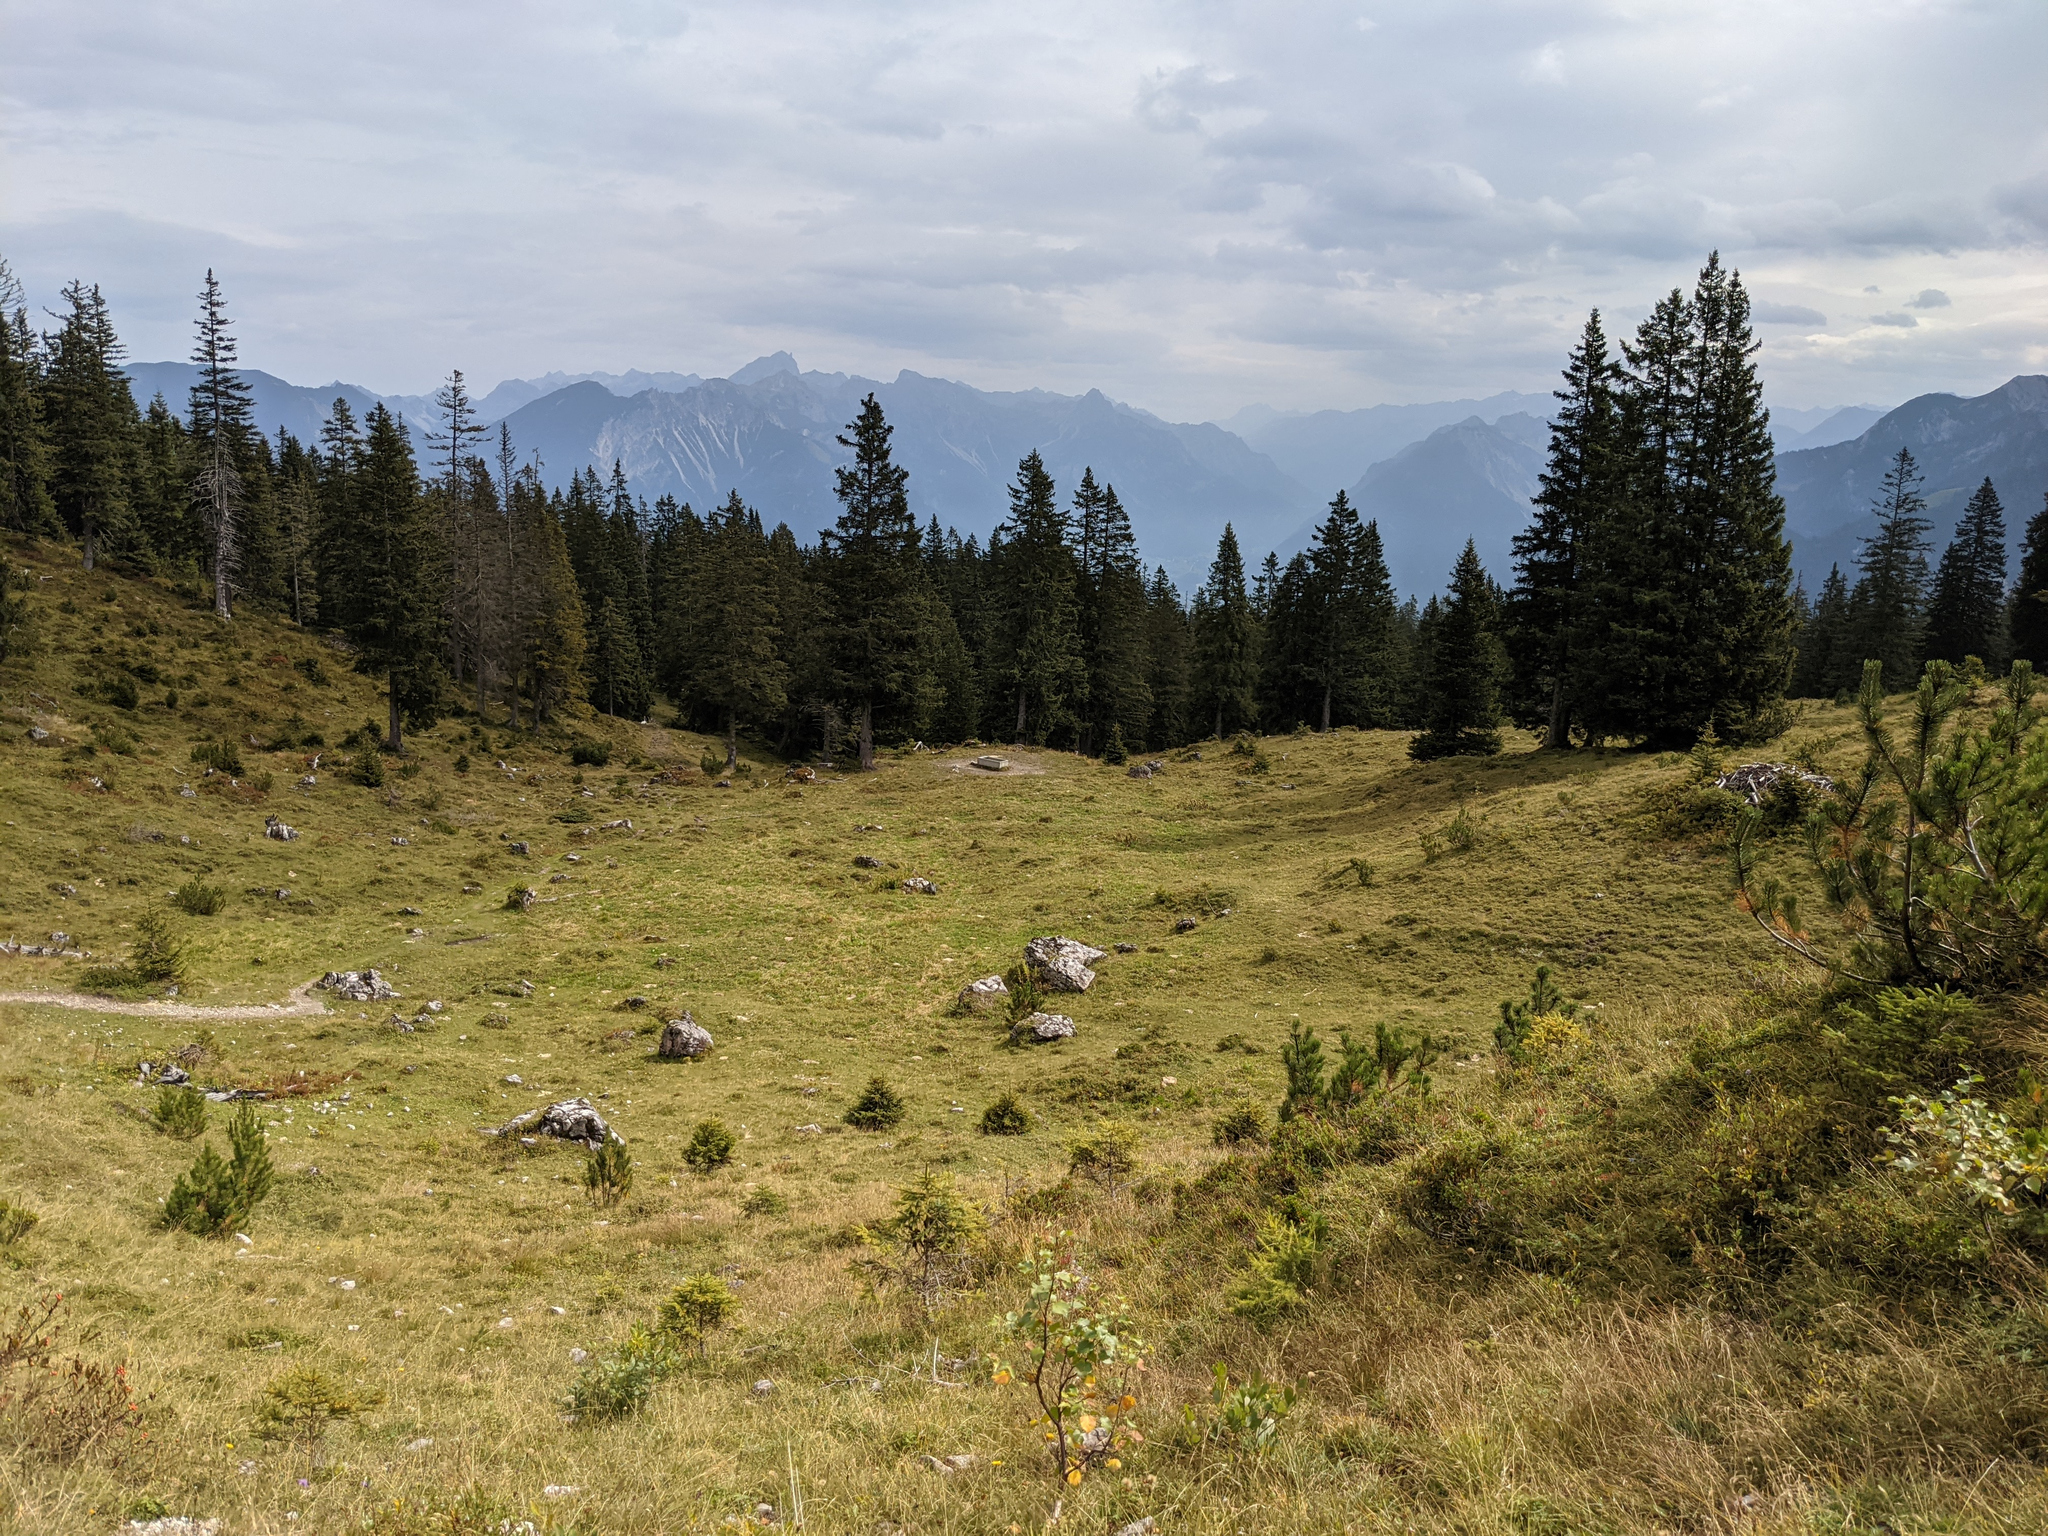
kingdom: Plantae
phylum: Tracheophyta
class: Pinopsida
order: Pinales
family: Pinaceae
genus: Picea
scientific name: Picea abies
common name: Norway spruce
